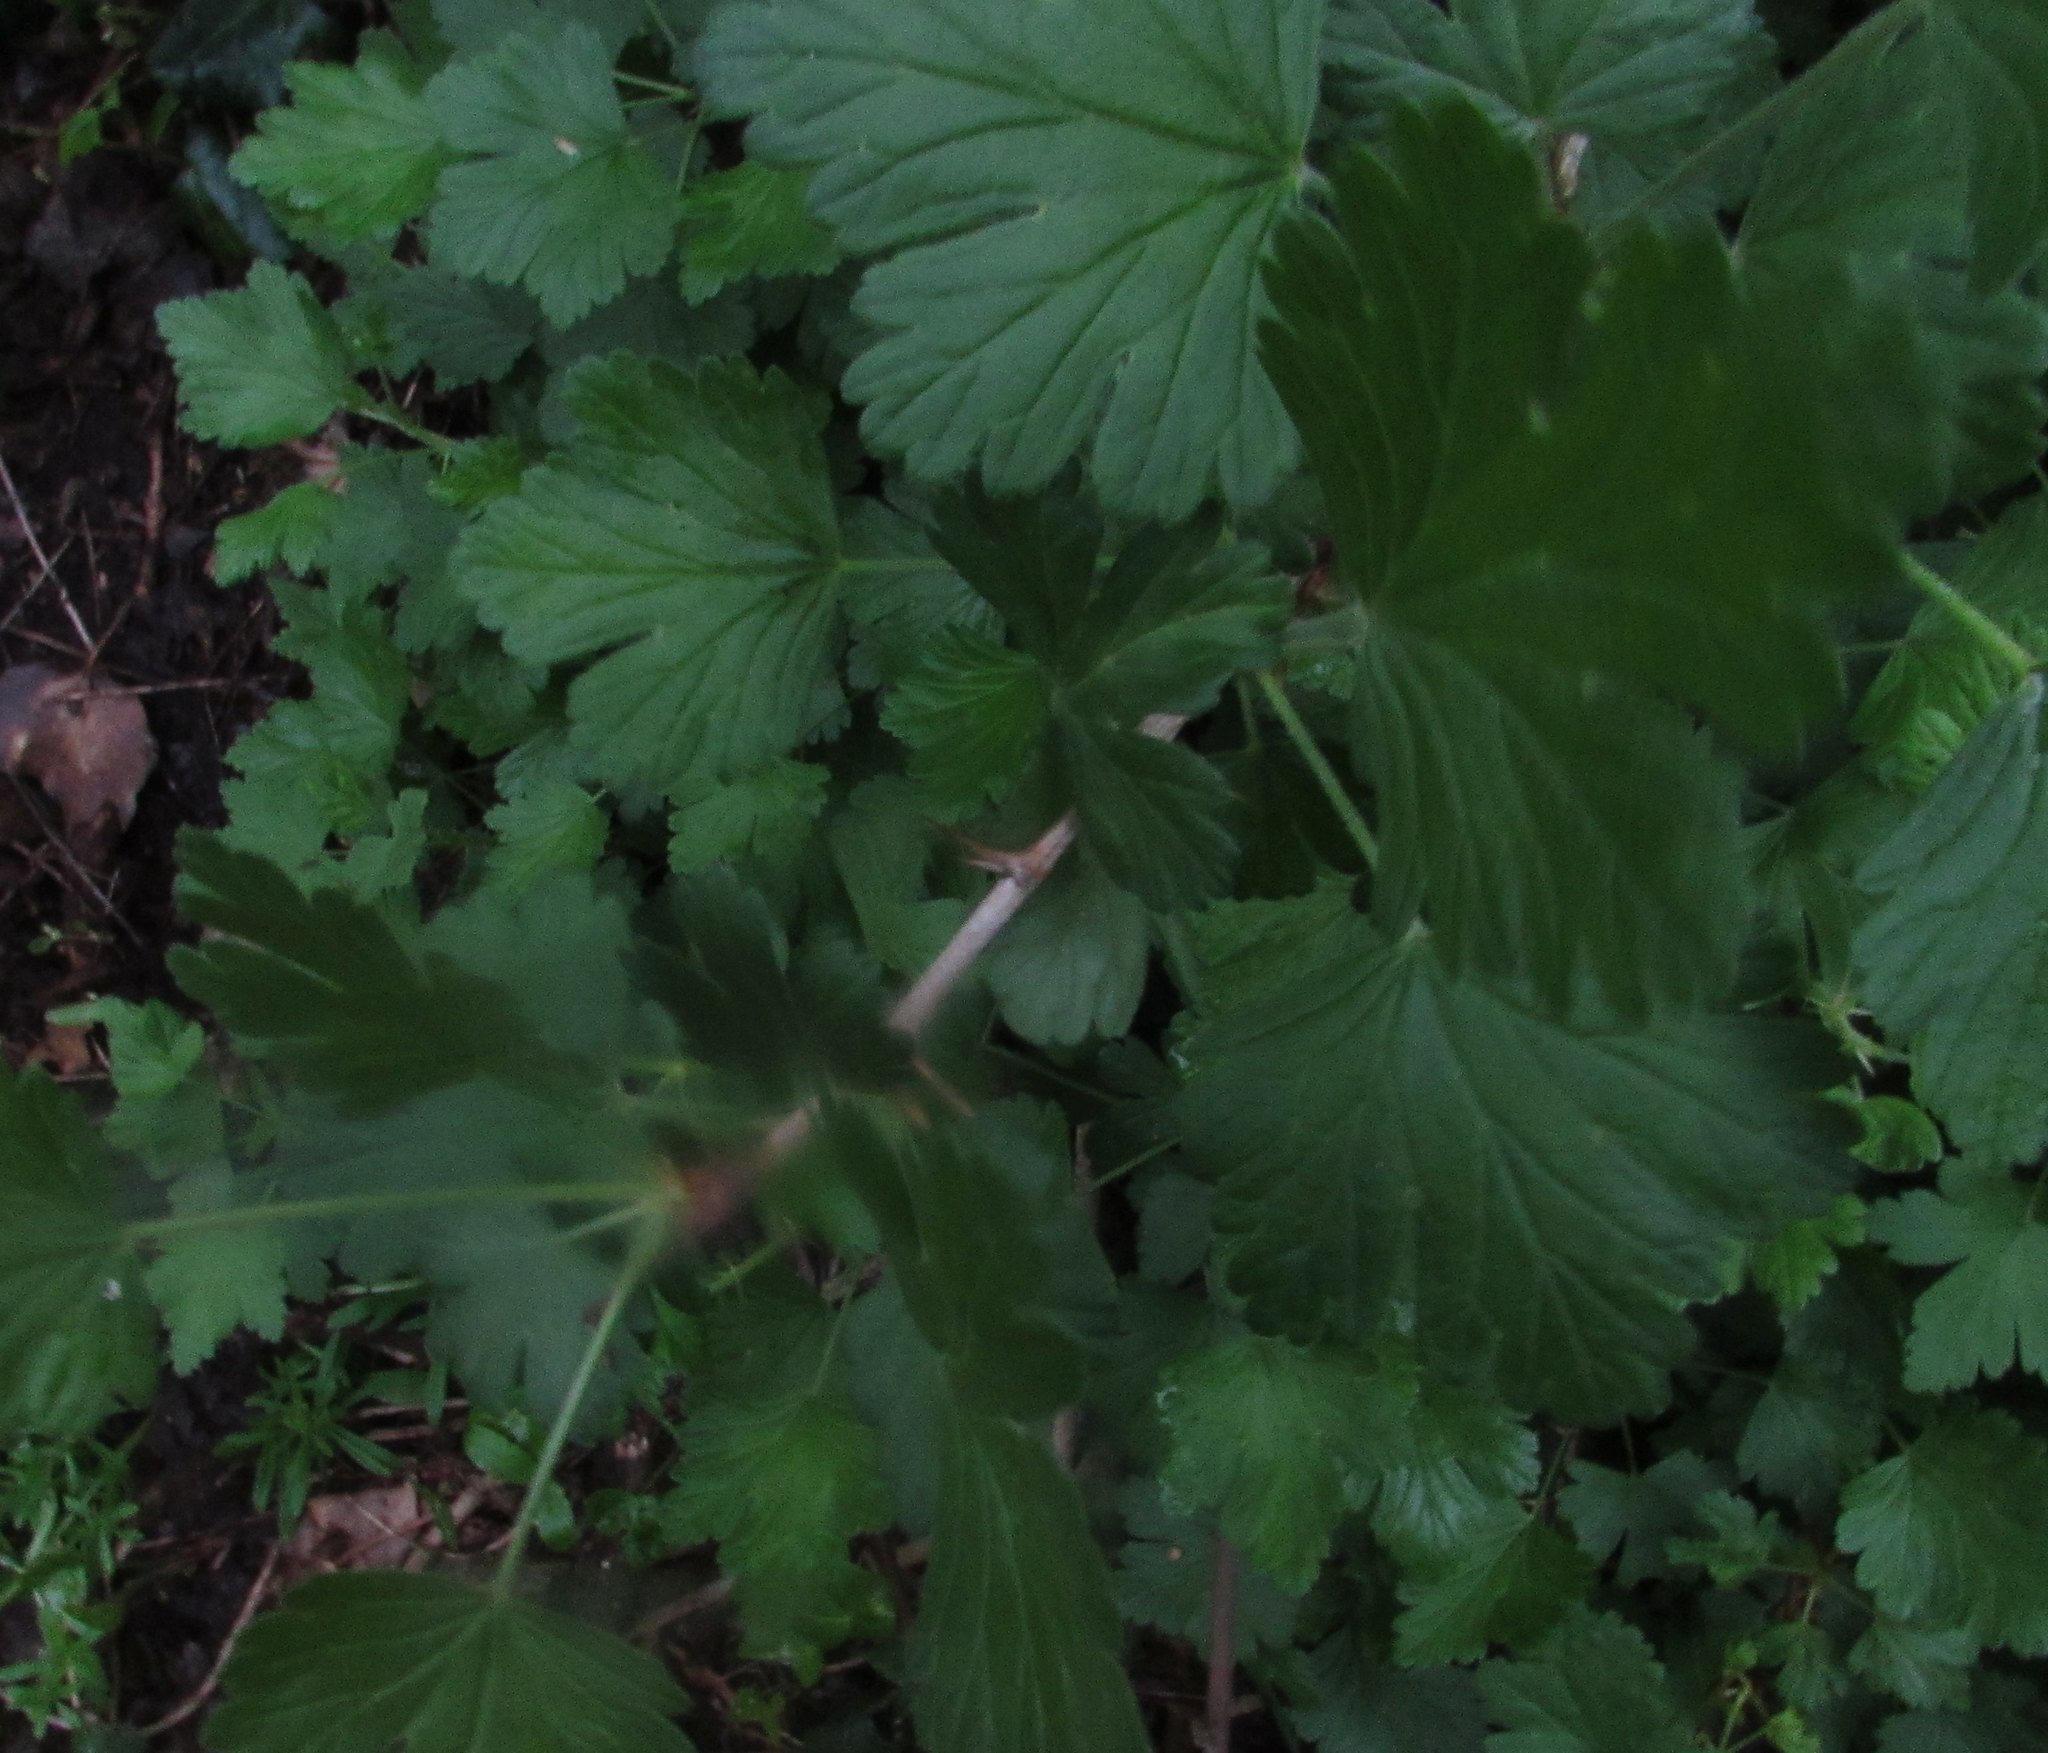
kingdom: Plantae
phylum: Tracheophyta
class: Magnoliopsida
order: Saxifragales
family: Grossulariaceae
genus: Ribes
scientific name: Ribes uva-crispa
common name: Gooseberry
